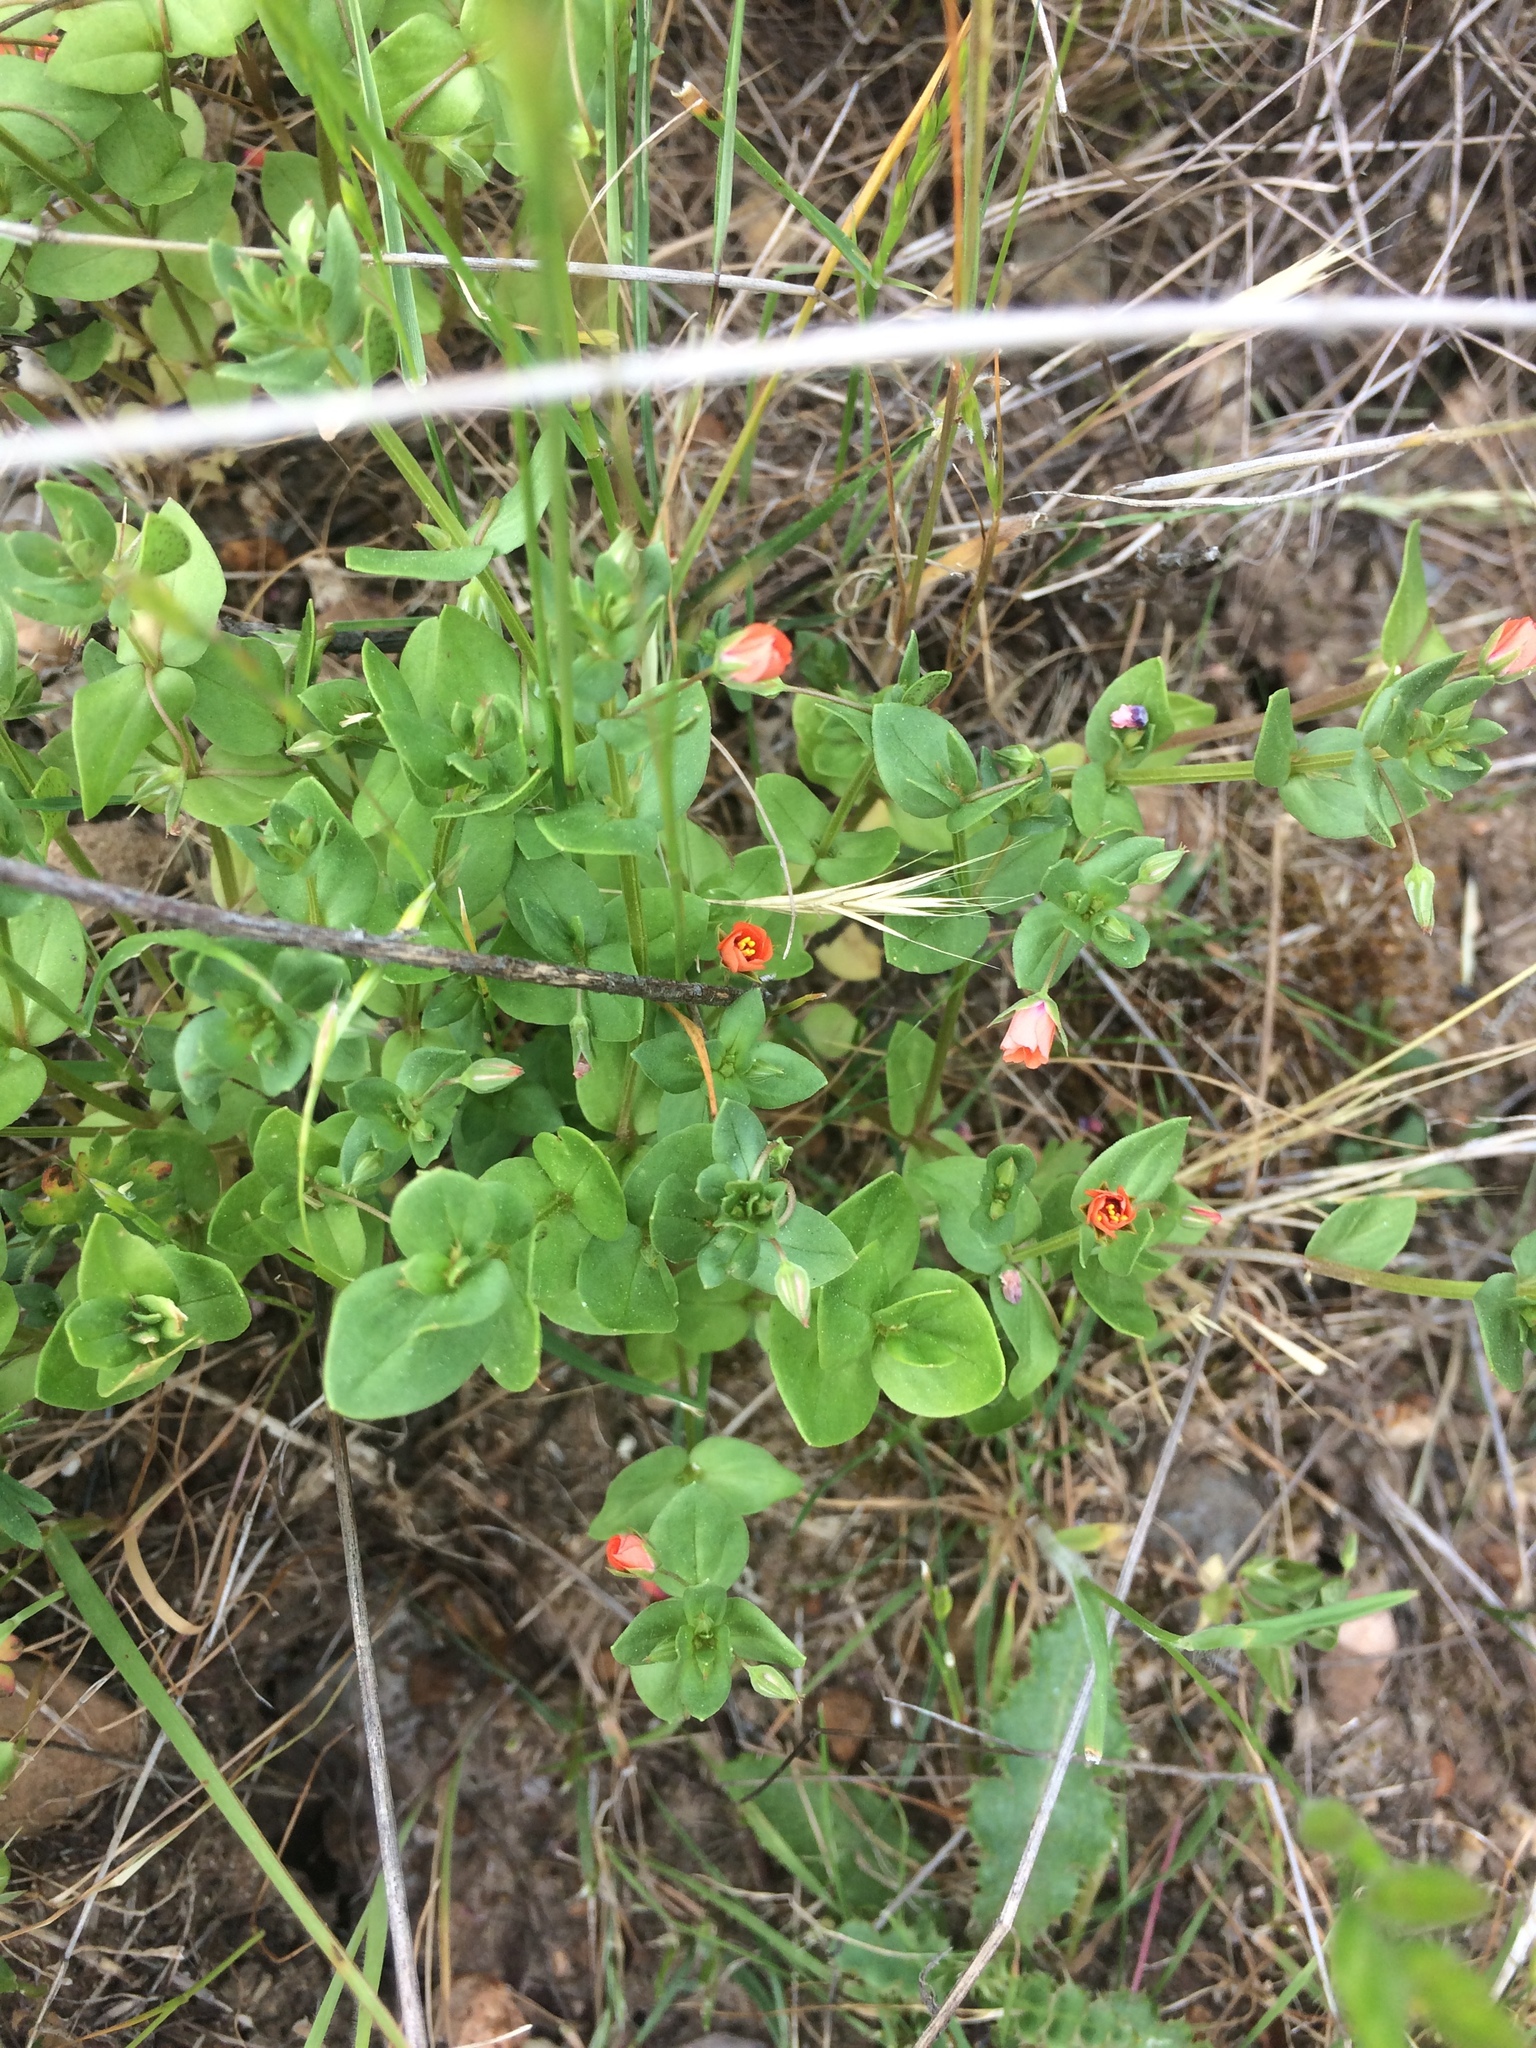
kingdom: Plantae
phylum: Tracheophyta
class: Magnoliopsida
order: Ericales
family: Primulaceae
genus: Lysimachia
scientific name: Lysimachia arvensis
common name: Scarlet pimpernel
